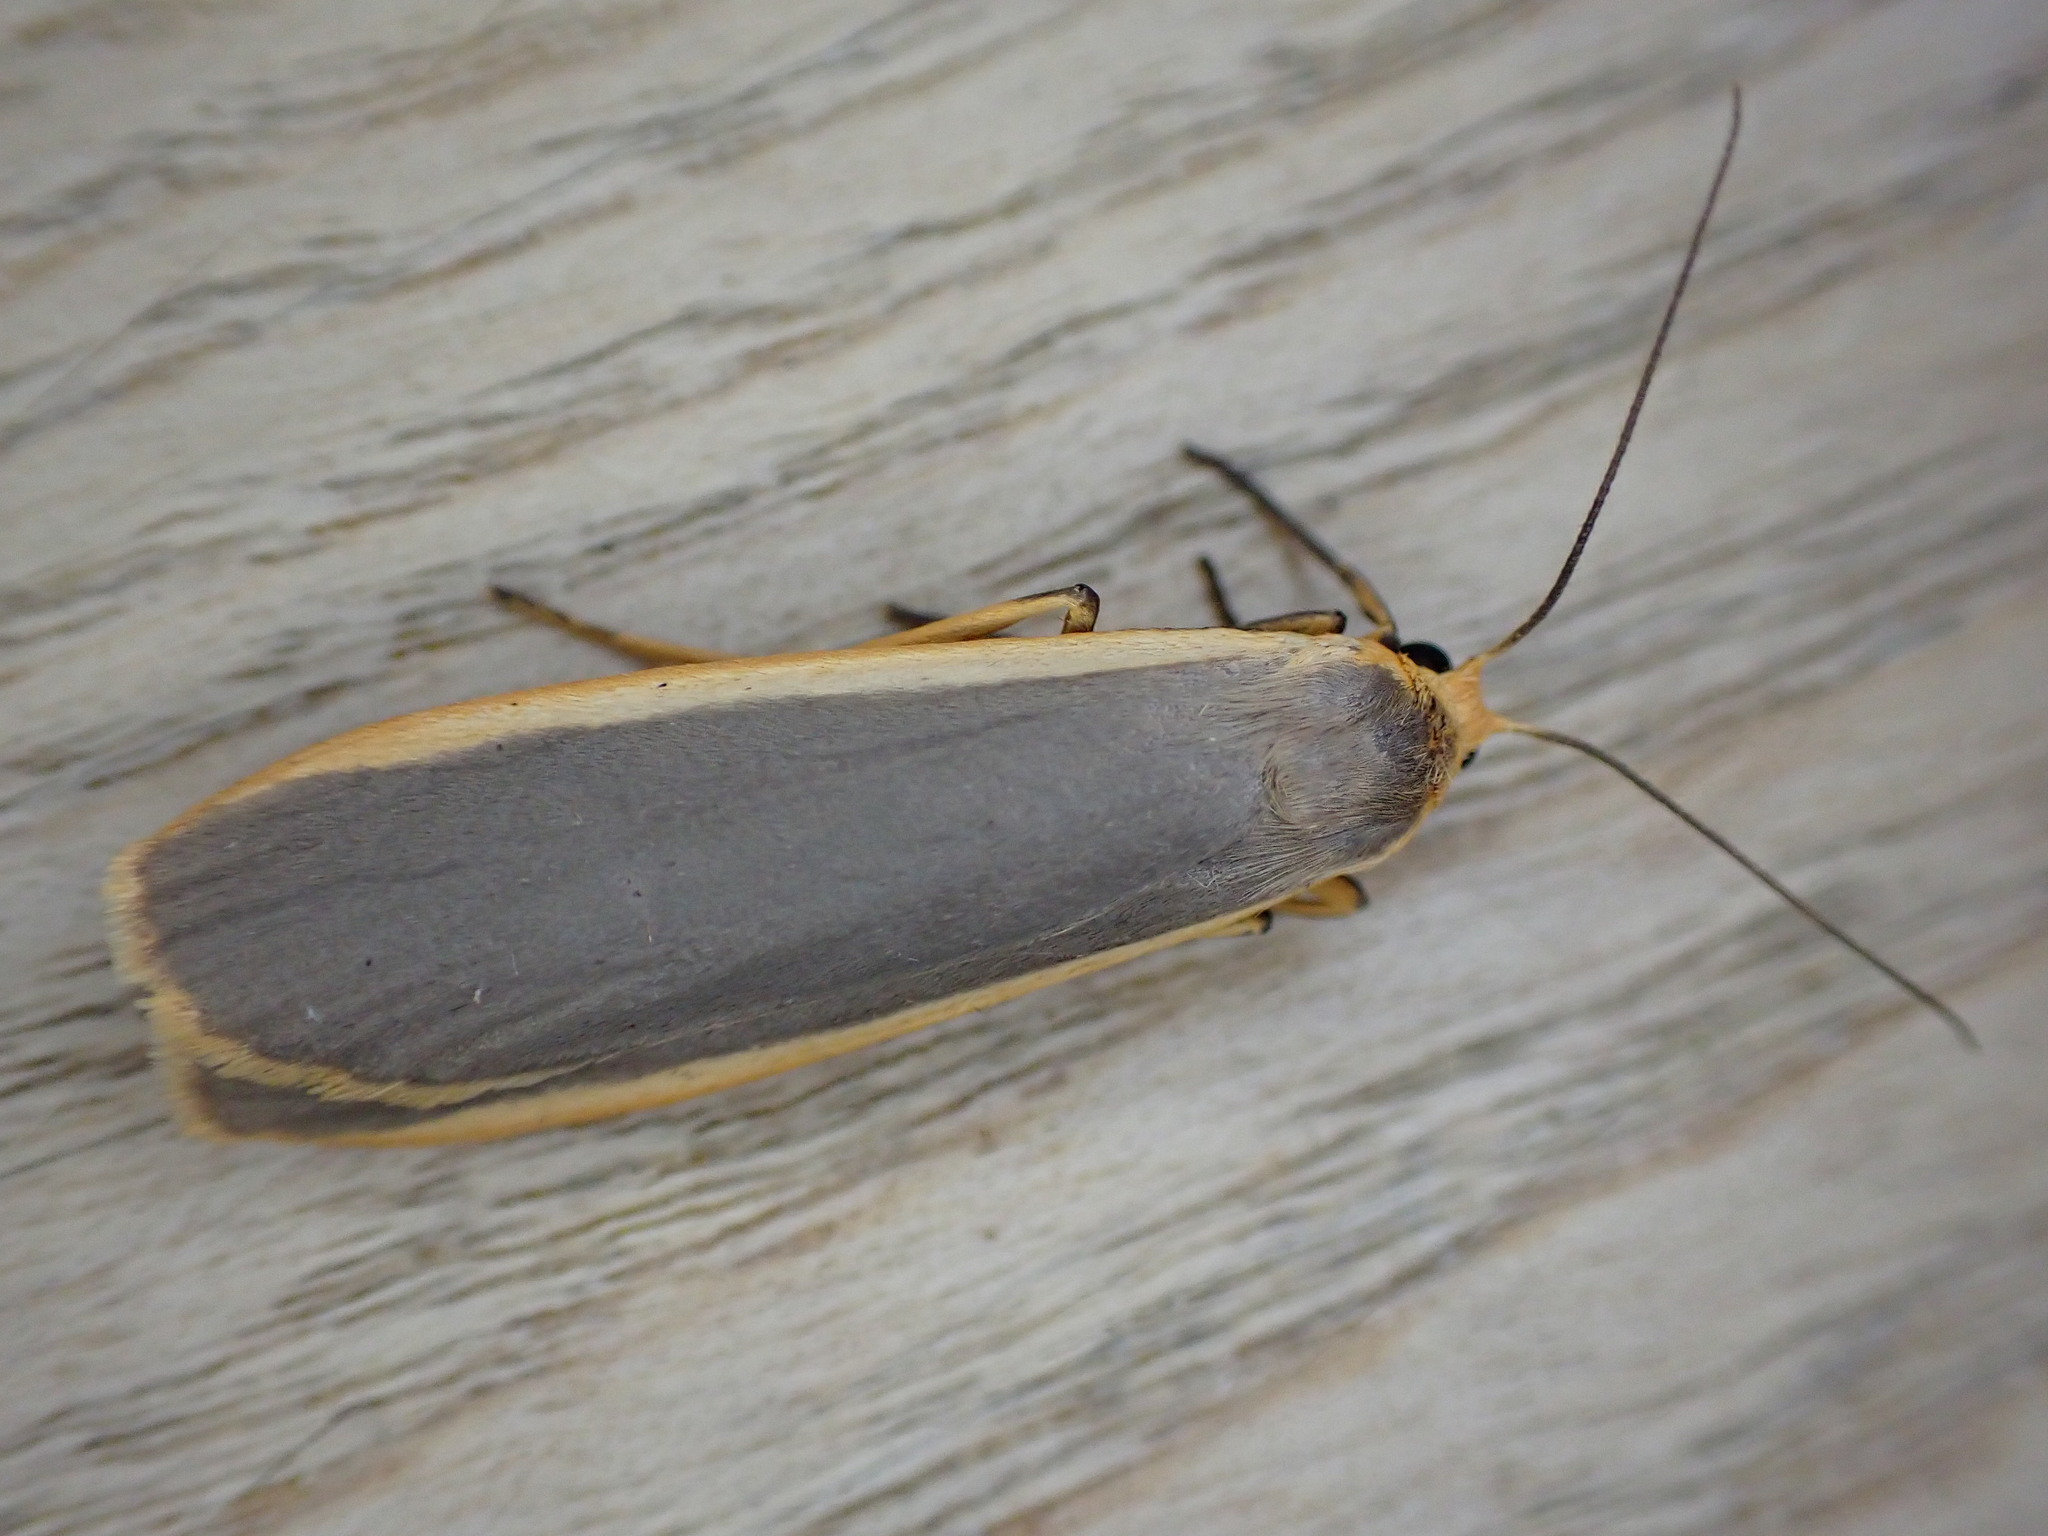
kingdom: Animalia
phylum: Arthropoda
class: Insecta
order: Lepidoptera
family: Erebidae
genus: Nyea
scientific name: Nyea lurideola
